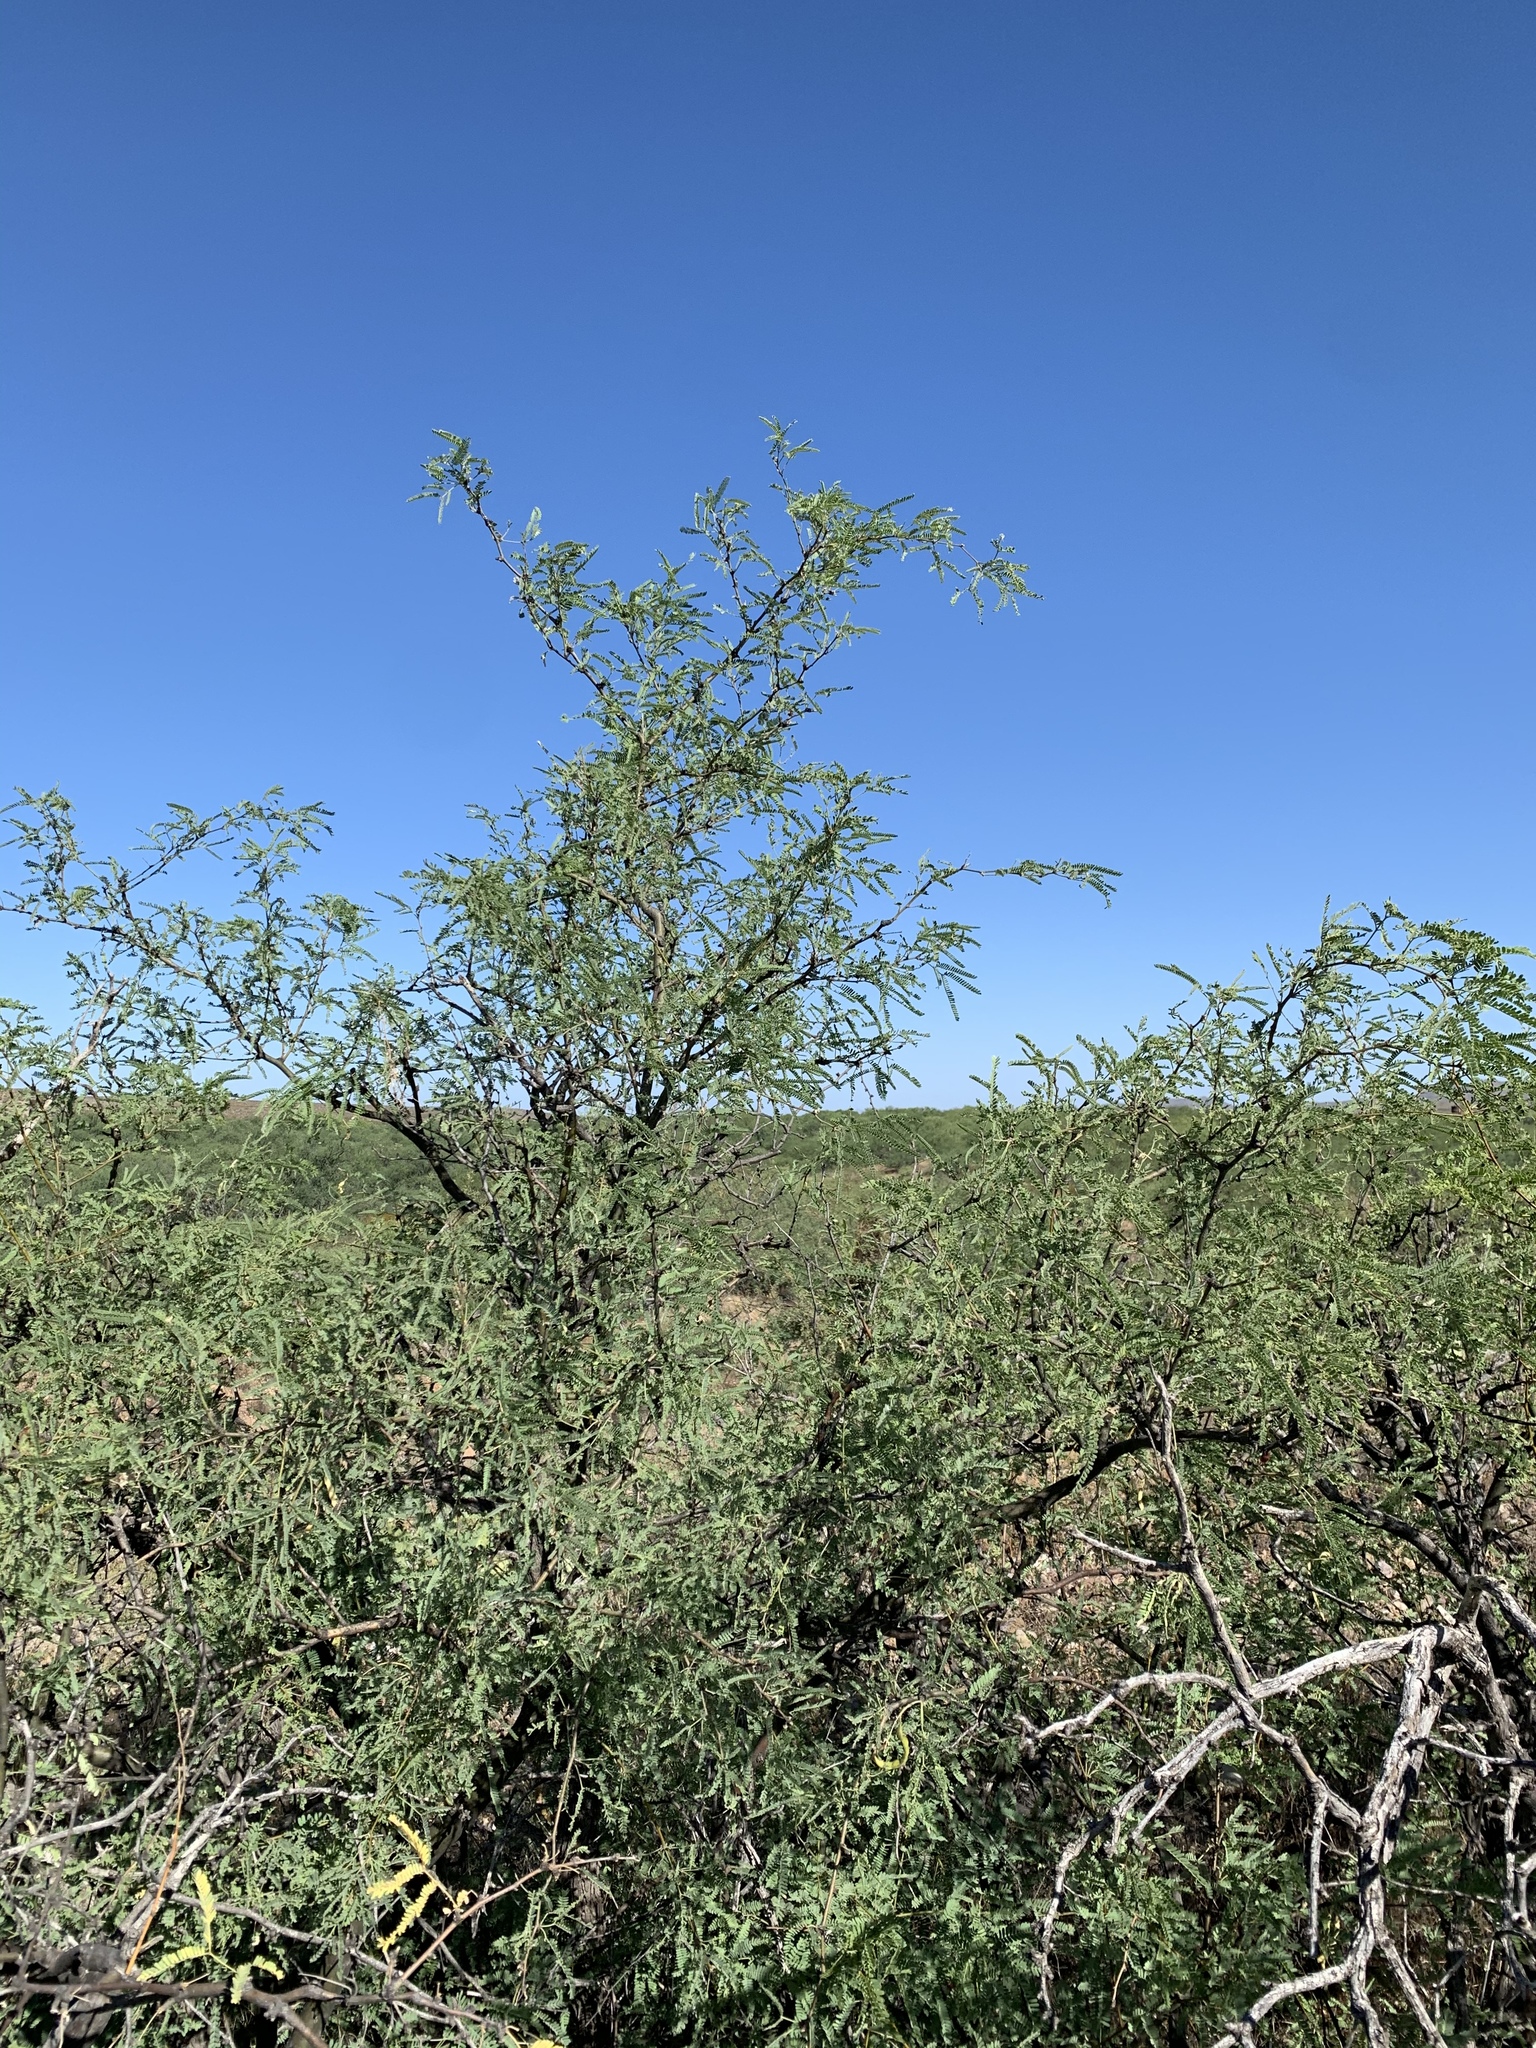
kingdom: Plantae
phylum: Tracheophyta
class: Magnoliopsida
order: Fabales
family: Fabaceae
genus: Prosopis
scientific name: Prosopis velutina
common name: Velvet mesquite
